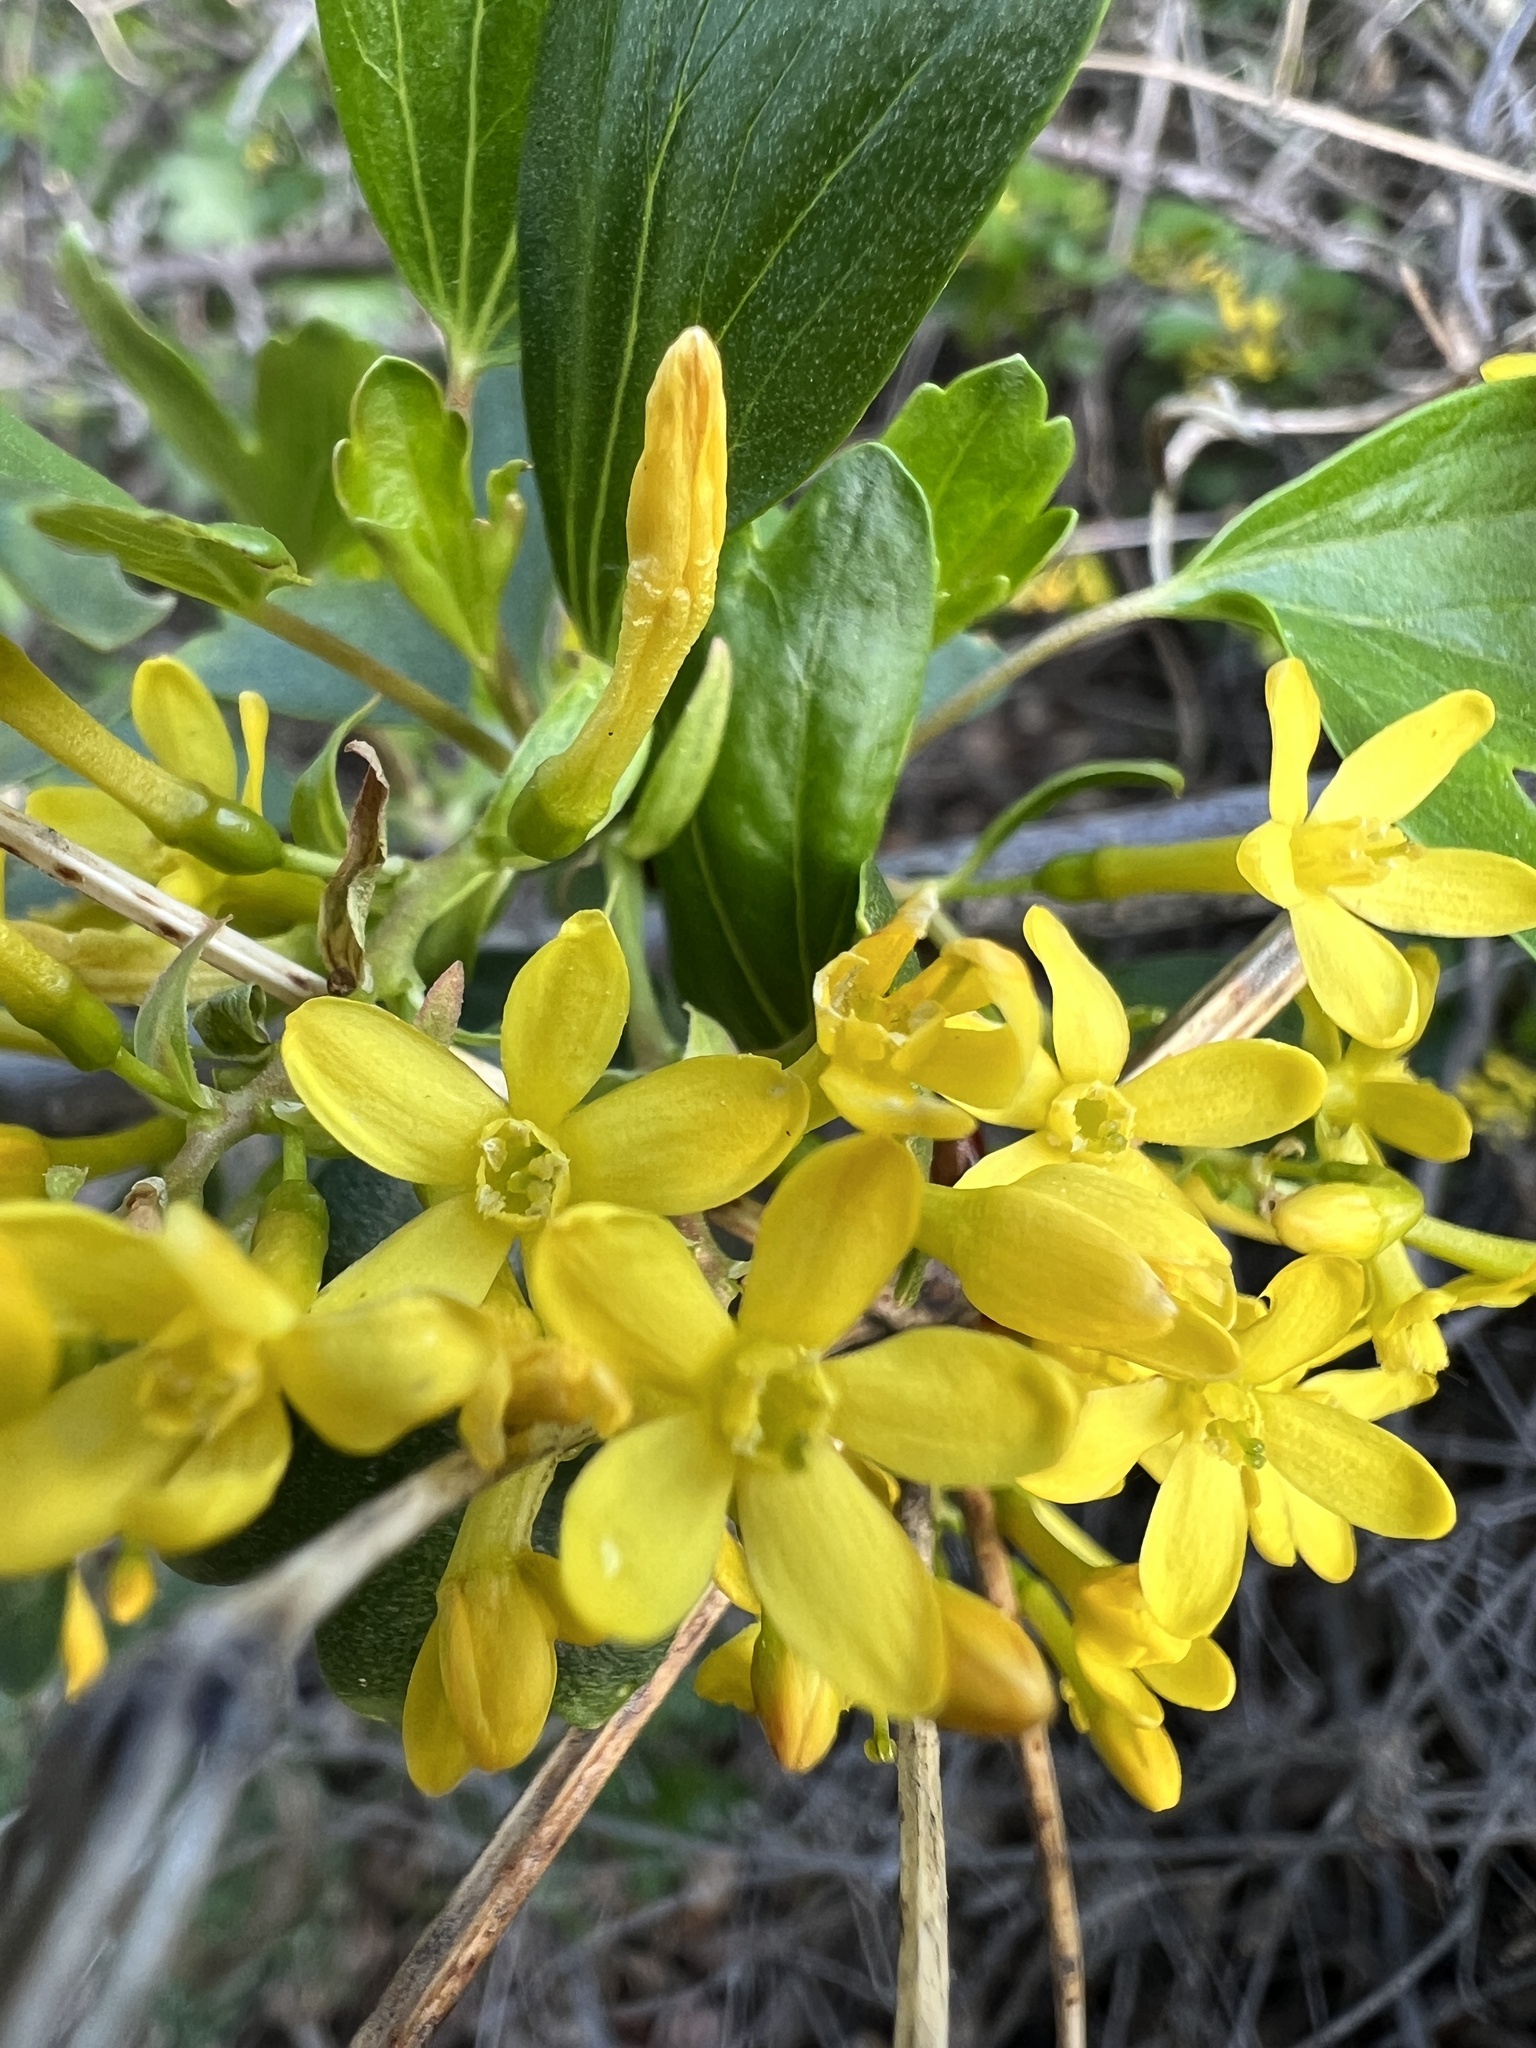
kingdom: Plantae
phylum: Tracheophyta
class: Magnoliopsida
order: Saxifragales
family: Grossulariaceae
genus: Ribes
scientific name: Ribes aureum
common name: Golden currant
